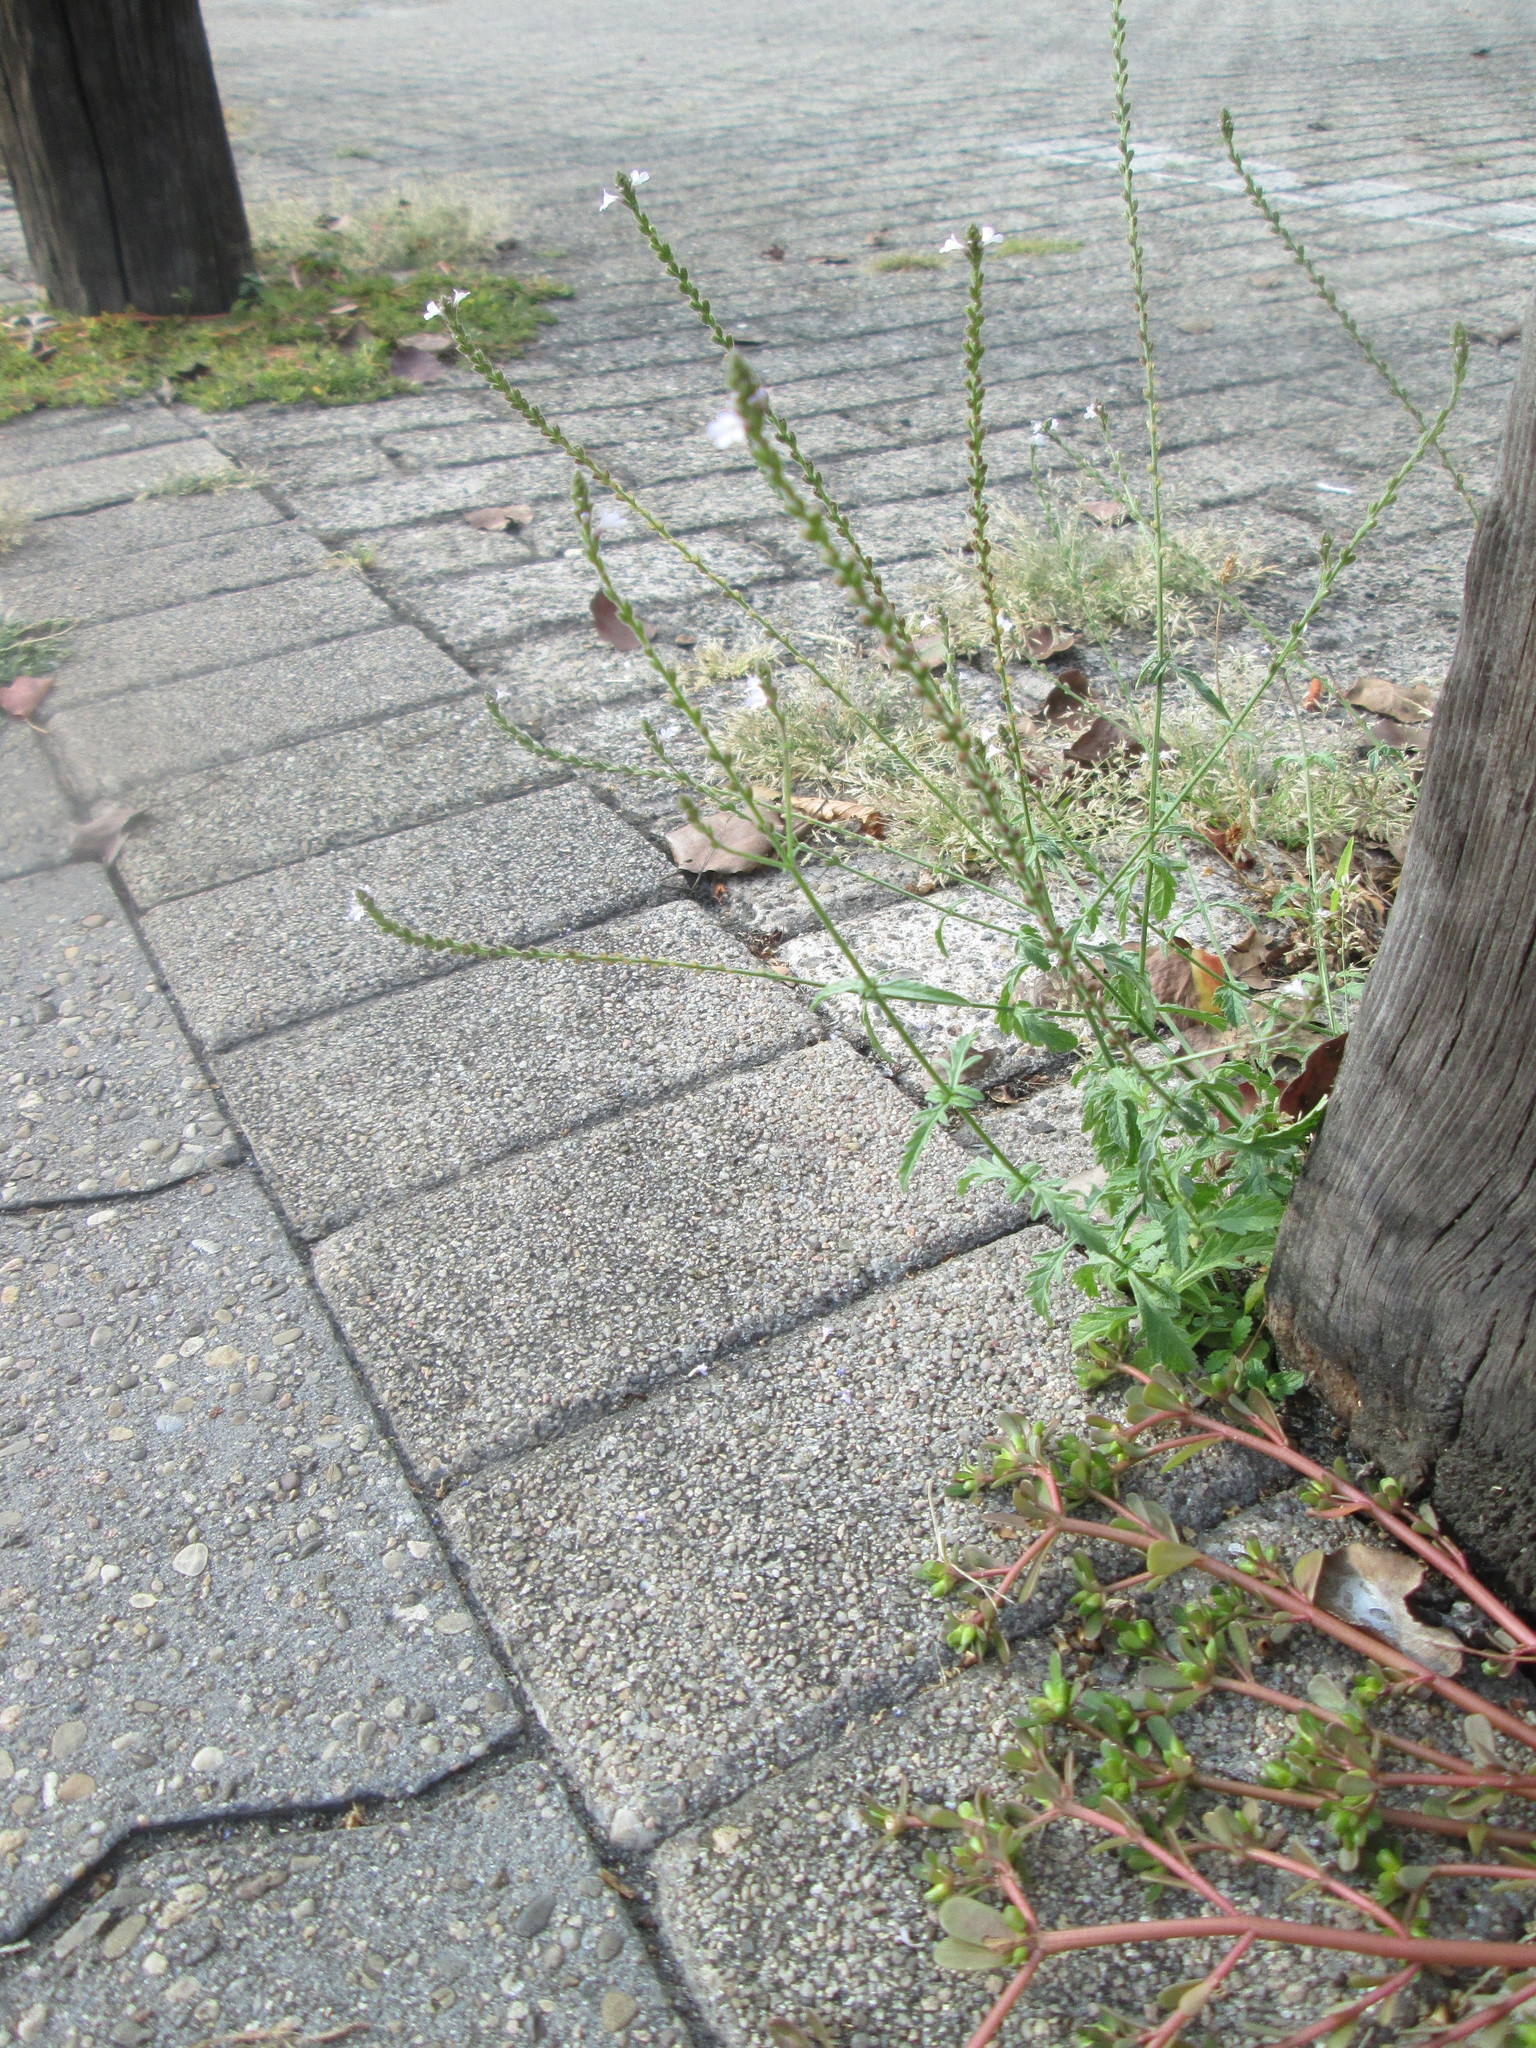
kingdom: Plantae
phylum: Tracheophyta
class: Magnoliopsida
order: Lamiales
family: Verbenaceae
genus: Verbena
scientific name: Verbena officinalis
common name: Vervain
